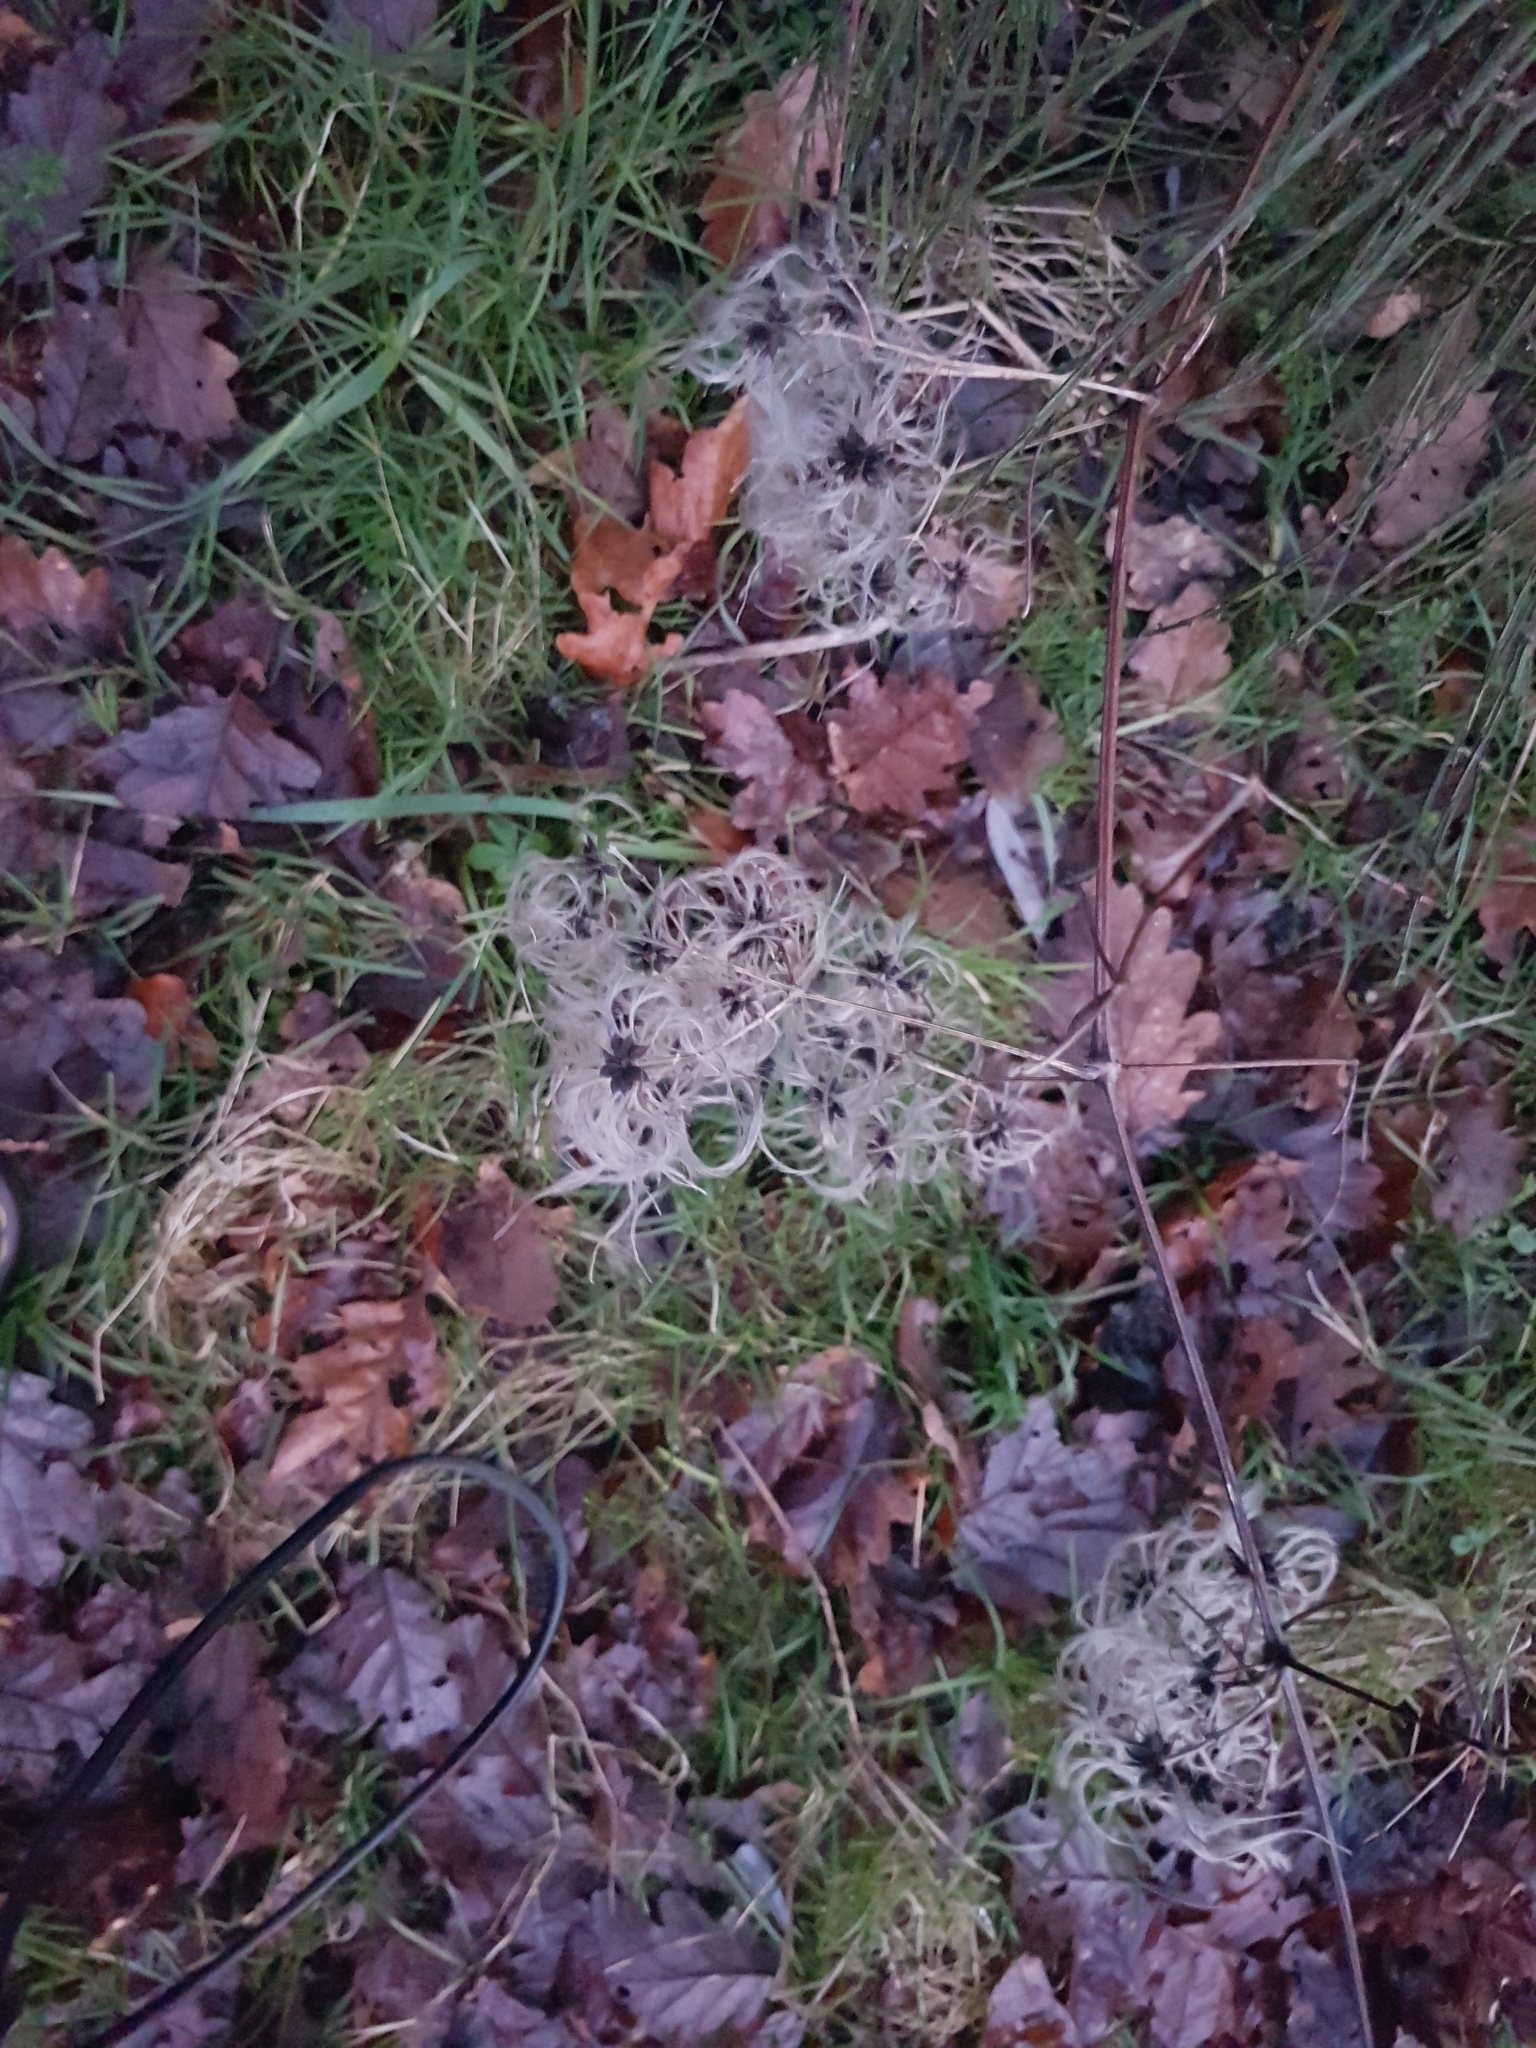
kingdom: Plantae
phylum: Tracheophyta
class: Magnoliopsida
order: Ranunculales
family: Ranunculaceae
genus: Clematis
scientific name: Clematis vitalba
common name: Evergreen clematis
